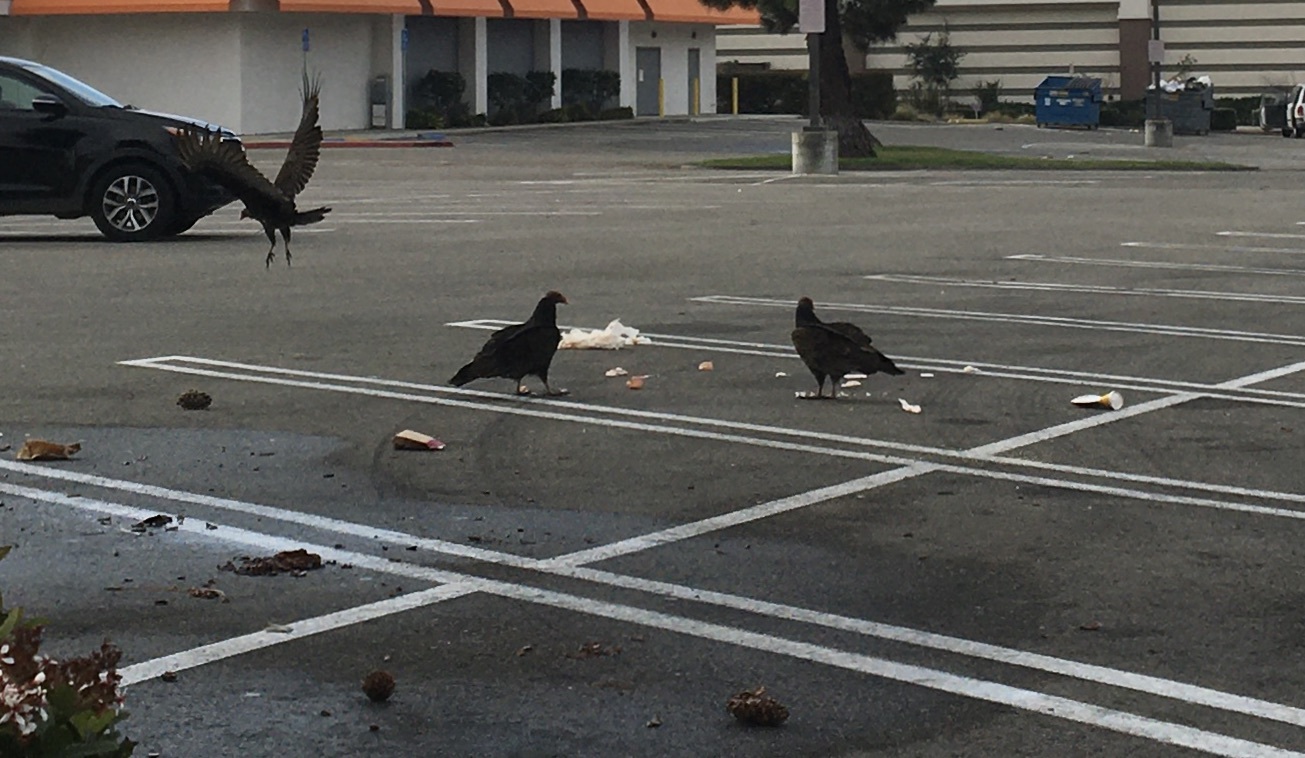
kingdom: Animalia
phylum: Chordata
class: Aves
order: Accipitriformes
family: Cathartidae
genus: Cathartes
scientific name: Cathartes aura
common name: Turkey vulture
